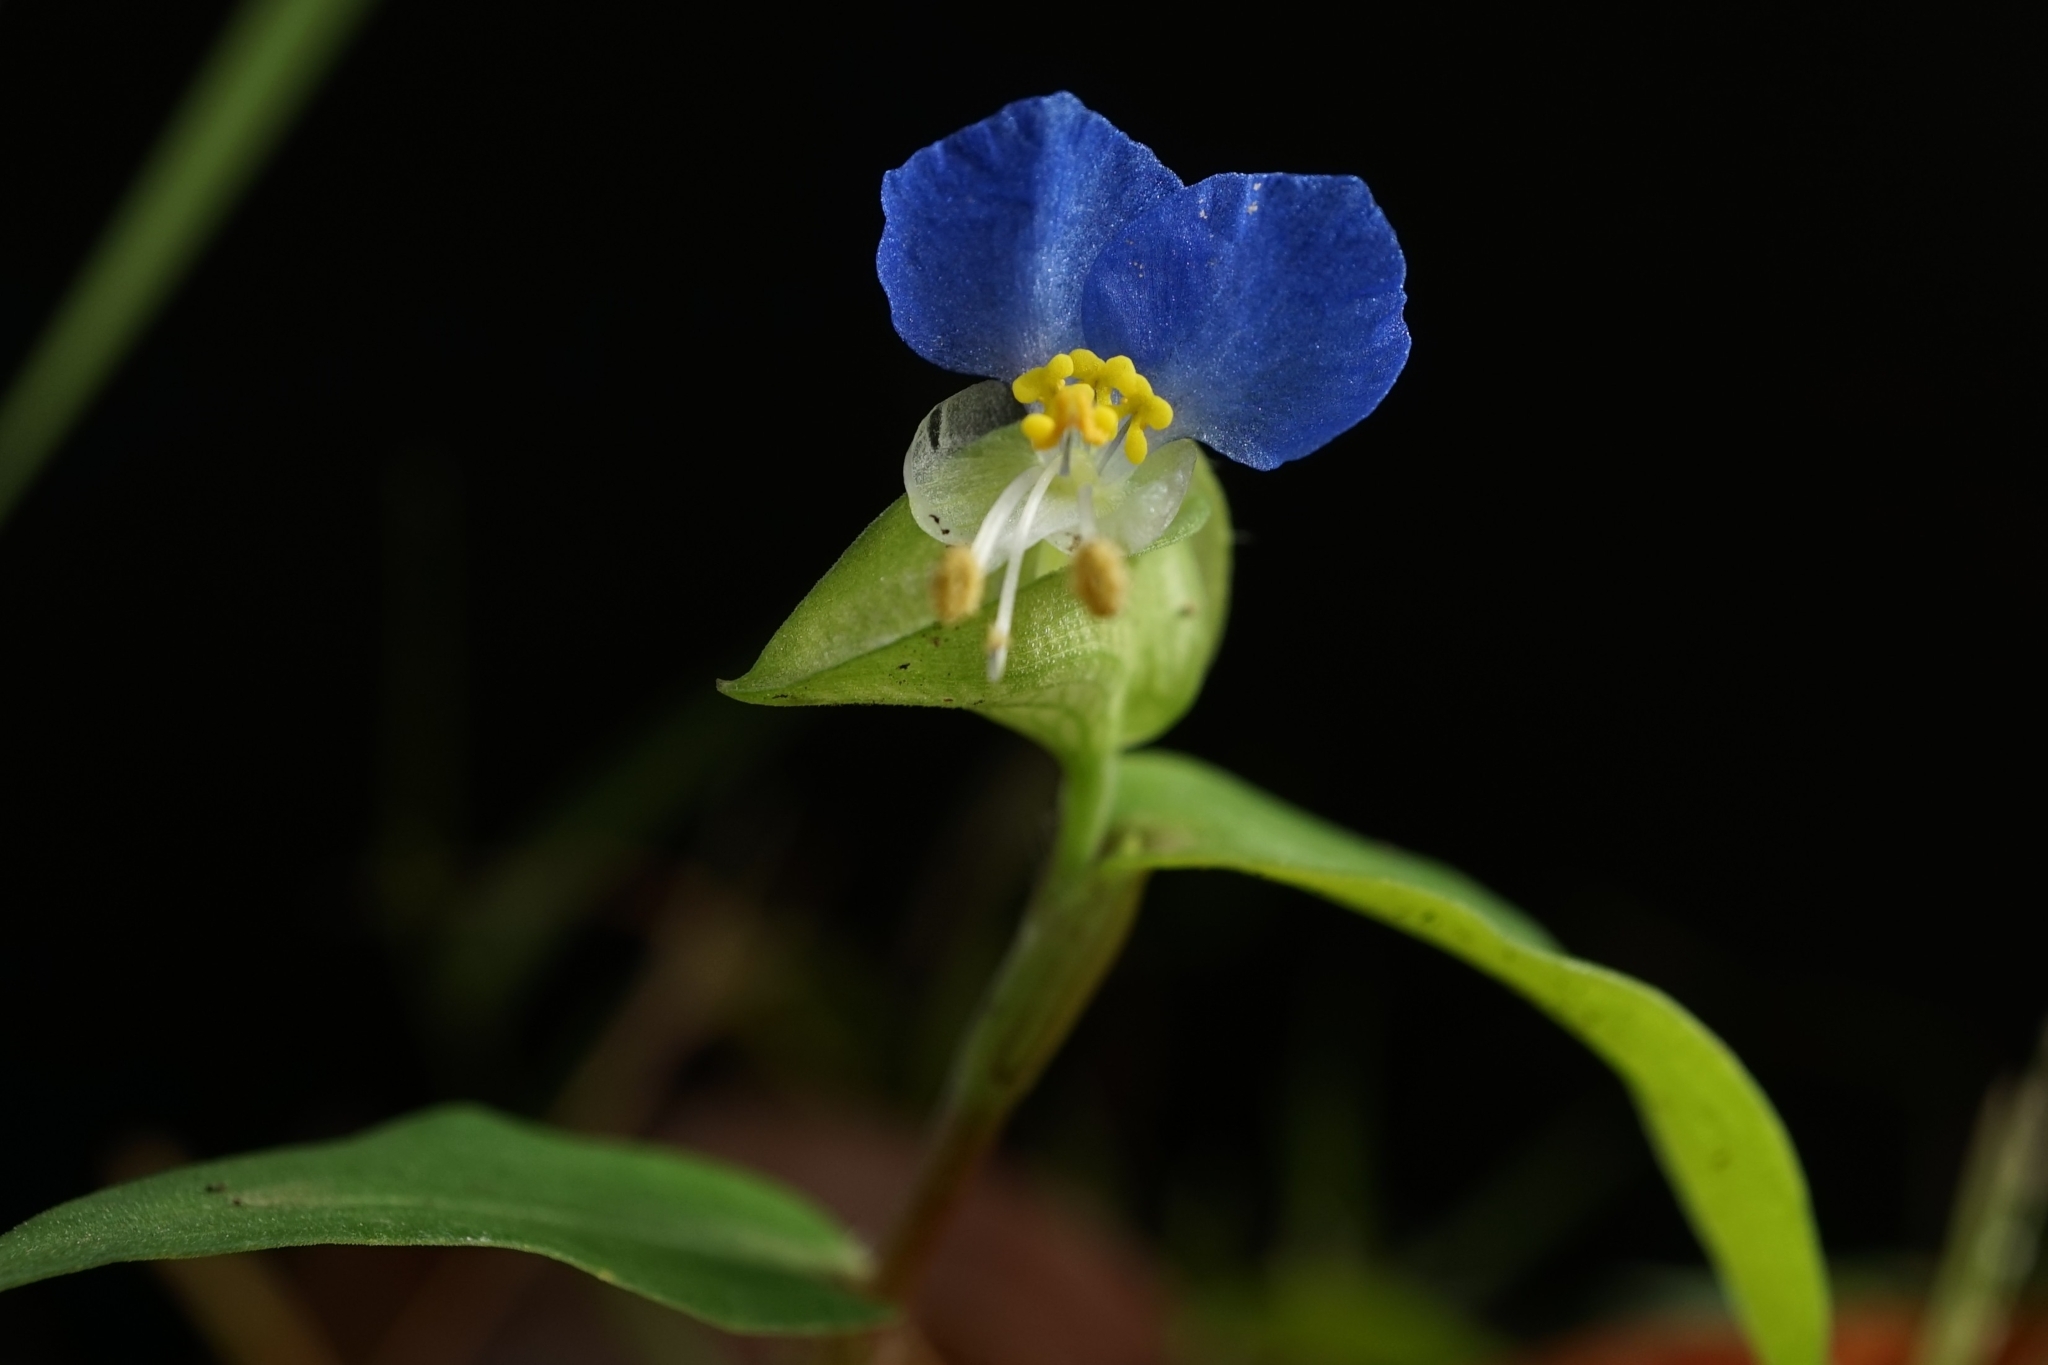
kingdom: Plantae
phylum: Tracheophyta
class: Liliopsida
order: Commelinales
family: Commelinaceae
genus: Commelina
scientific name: Commelina communis
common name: Asiatic dayflower
